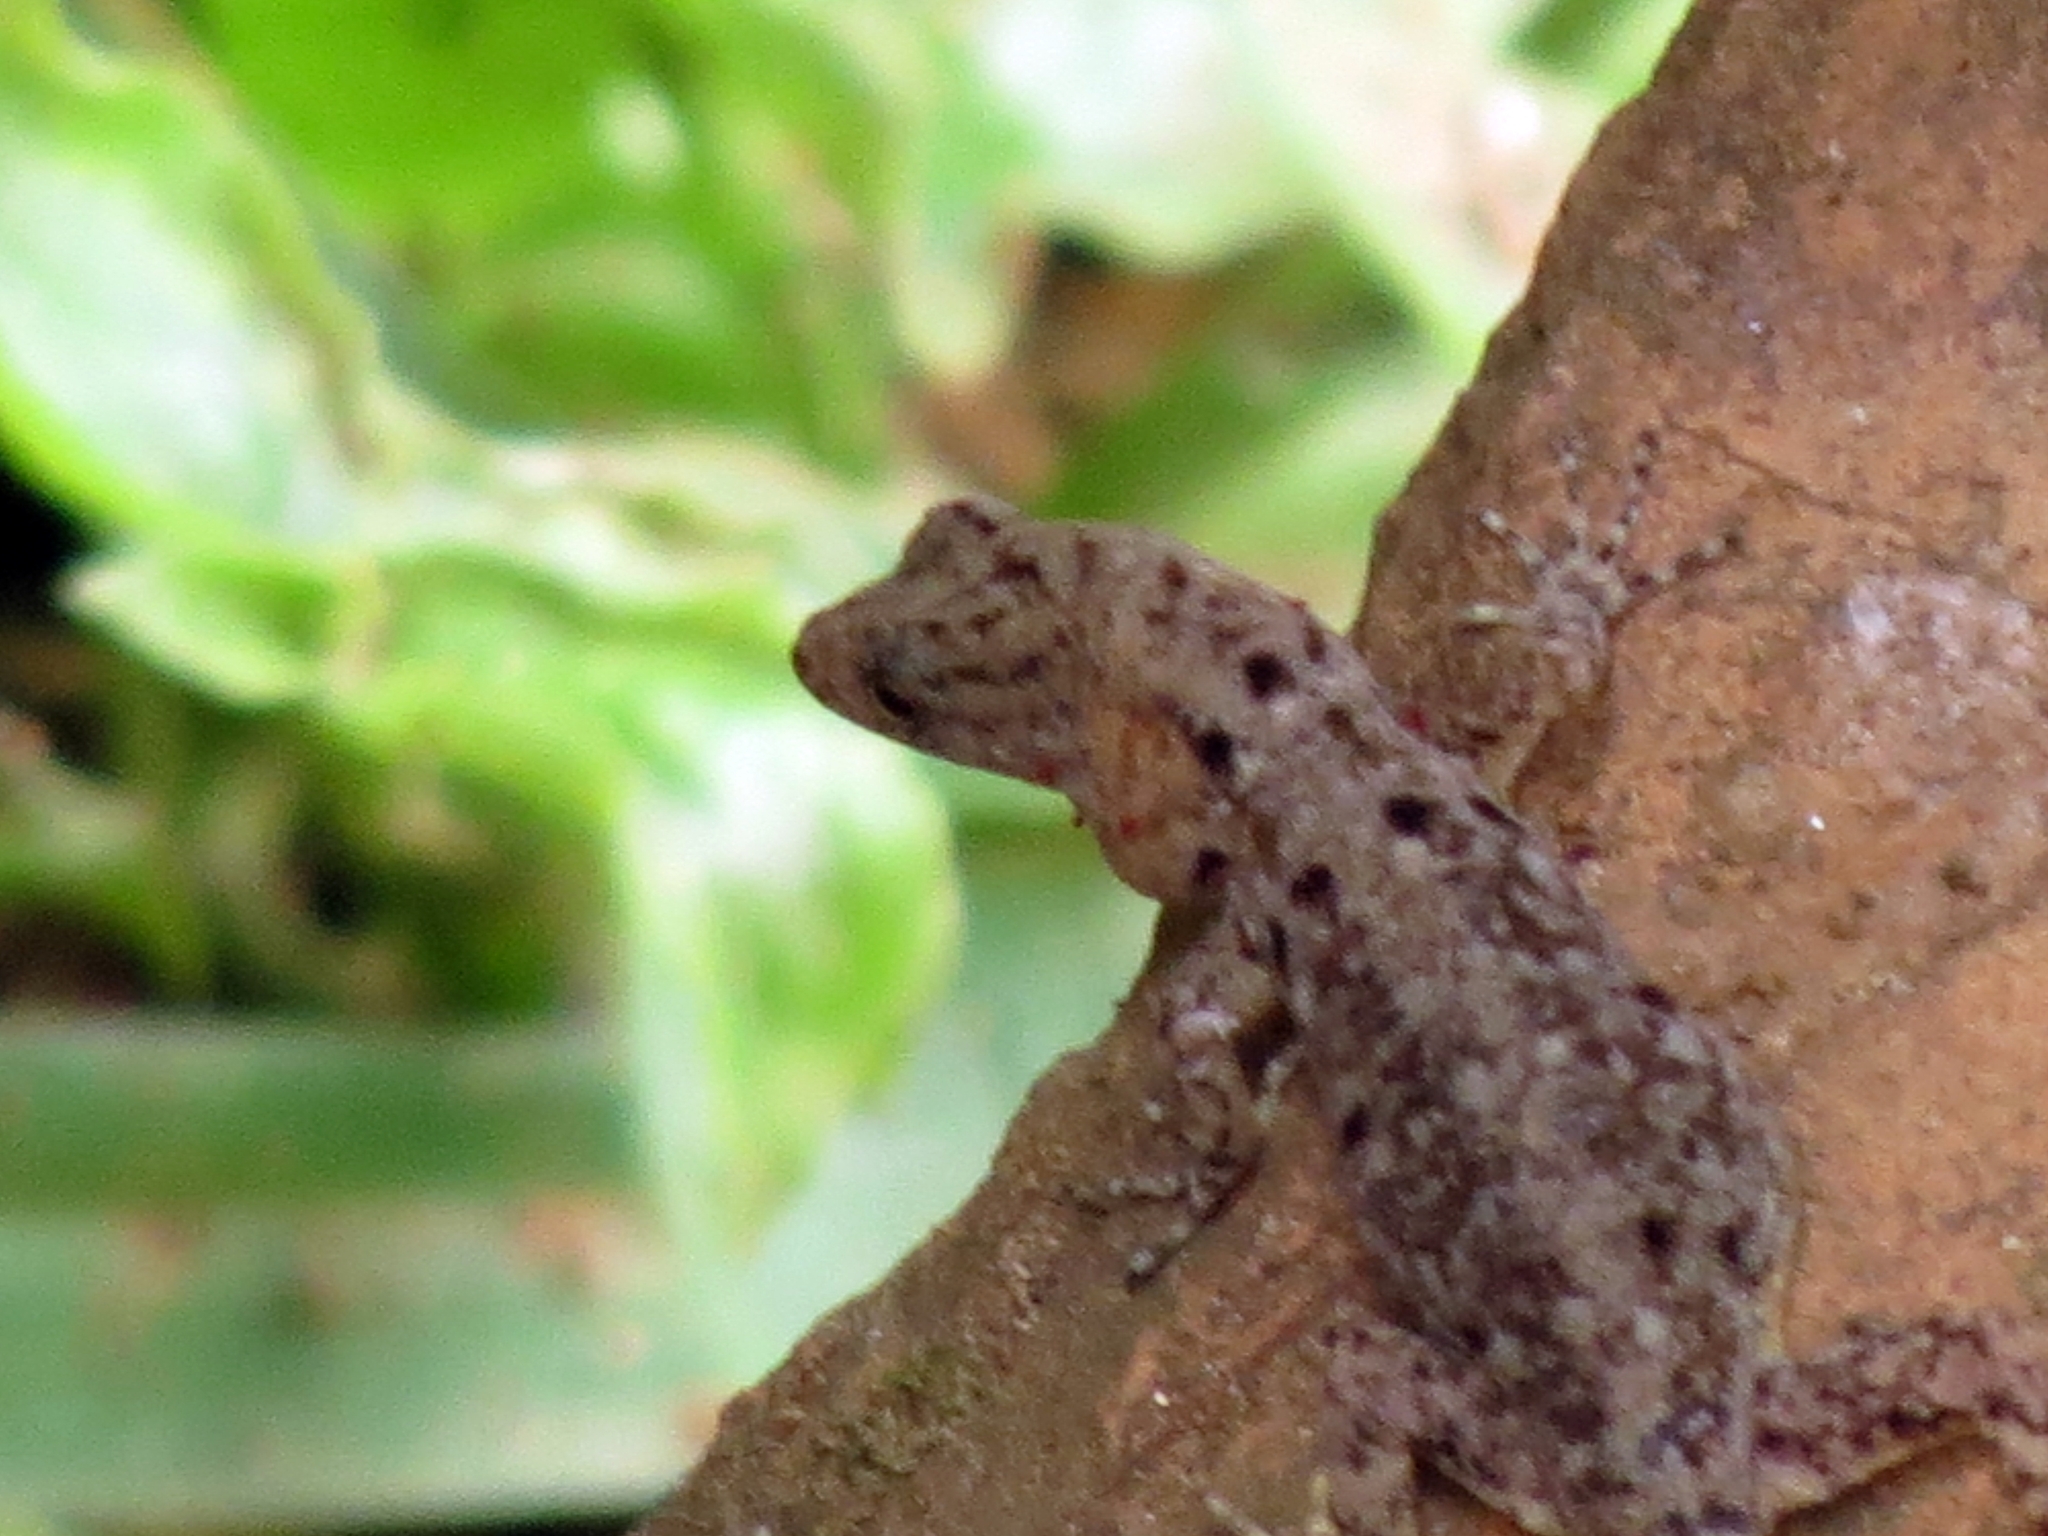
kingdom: Animalia
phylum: Chordata
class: Squamata
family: Sphaerodactylidae
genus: Gonatodes
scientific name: Gonatodes albogularis
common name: Yellow-headed gecko
